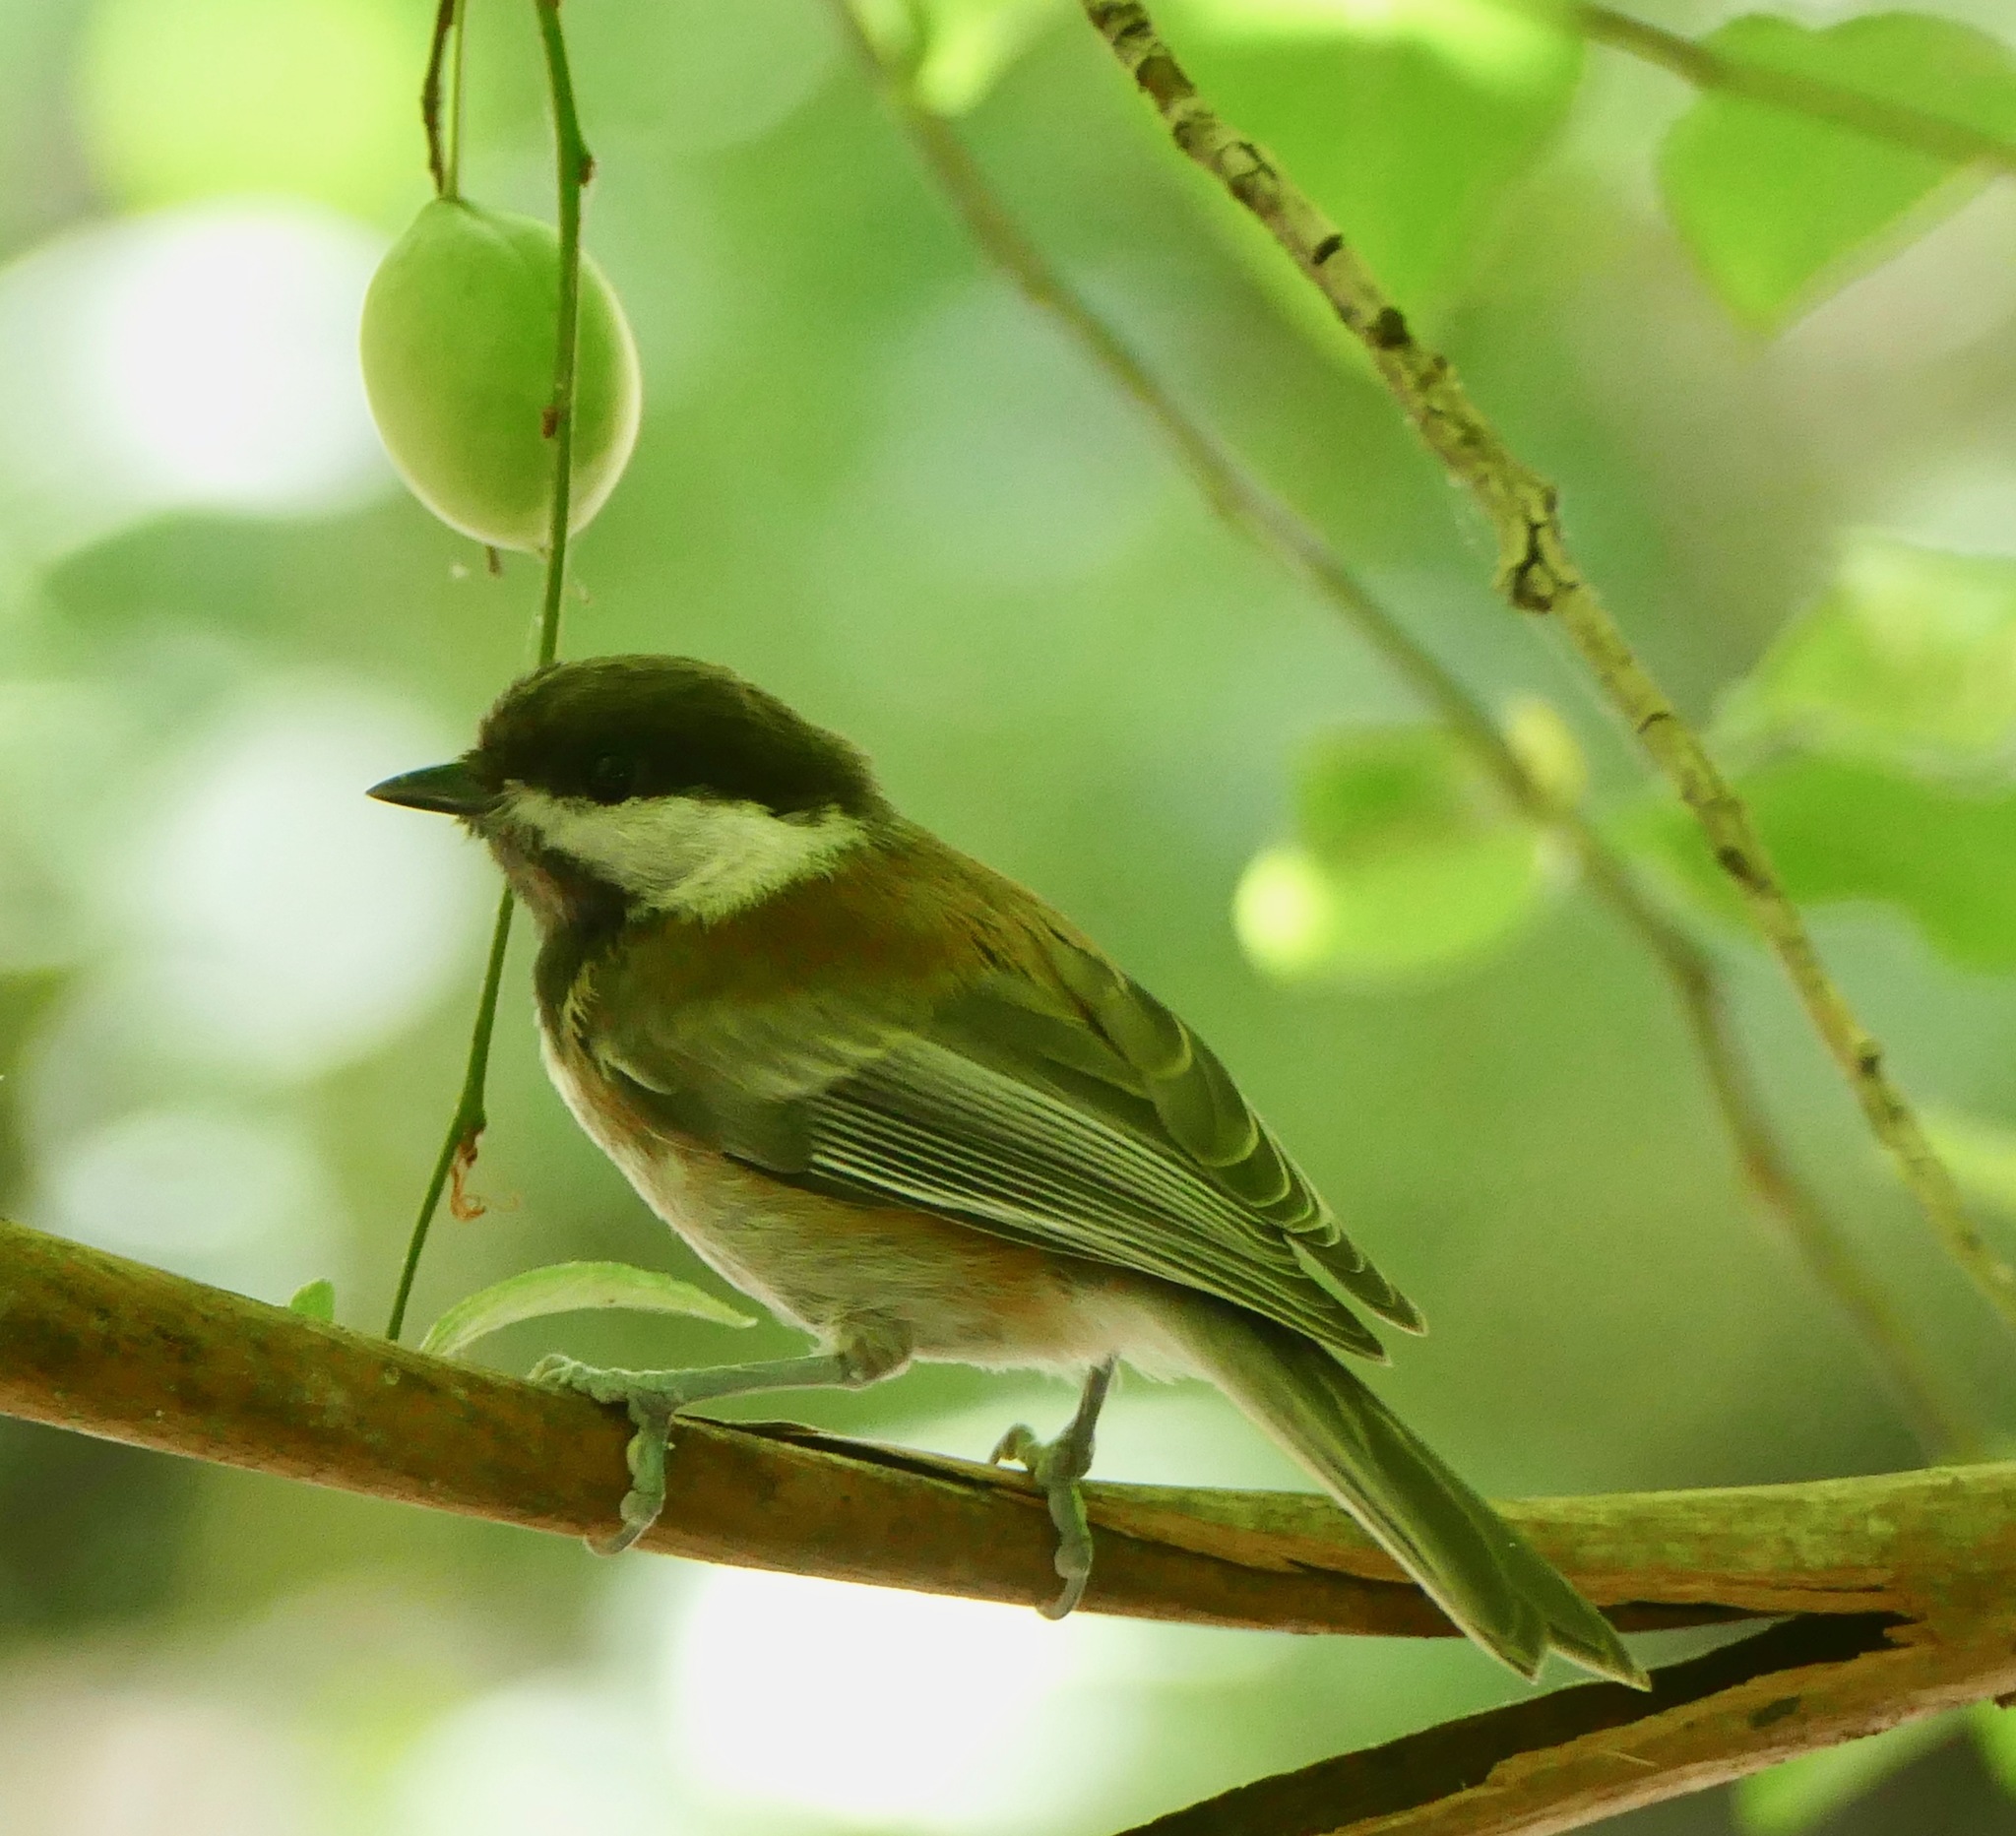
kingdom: Animalia
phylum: Chordata
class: Aves
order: Passeriformes
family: Paridae
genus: Poecile
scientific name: Poecile rufescens
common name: Chestnut-backed chickadee
